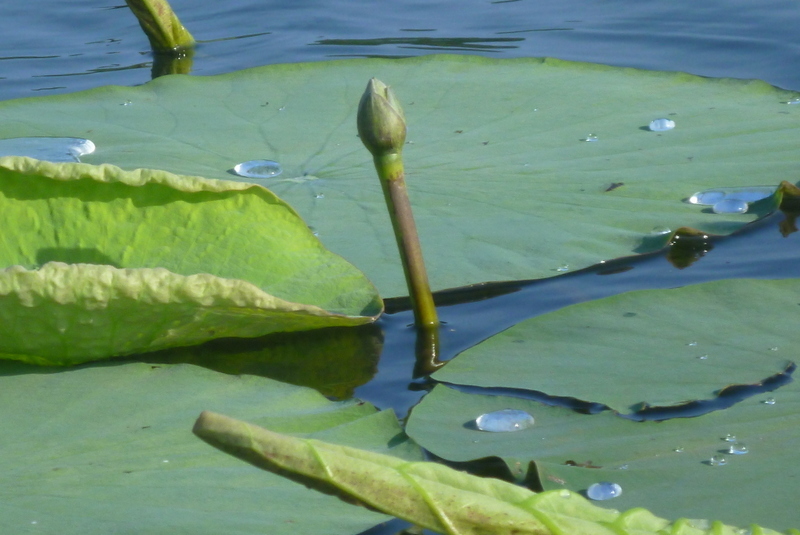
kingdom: Plantae
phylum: Tracheophyta
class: Magnoliopsida
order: Proteales
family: Nelumbonaceae
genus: Nelumbo
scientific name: Nelumbo lutea
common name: American lotus
